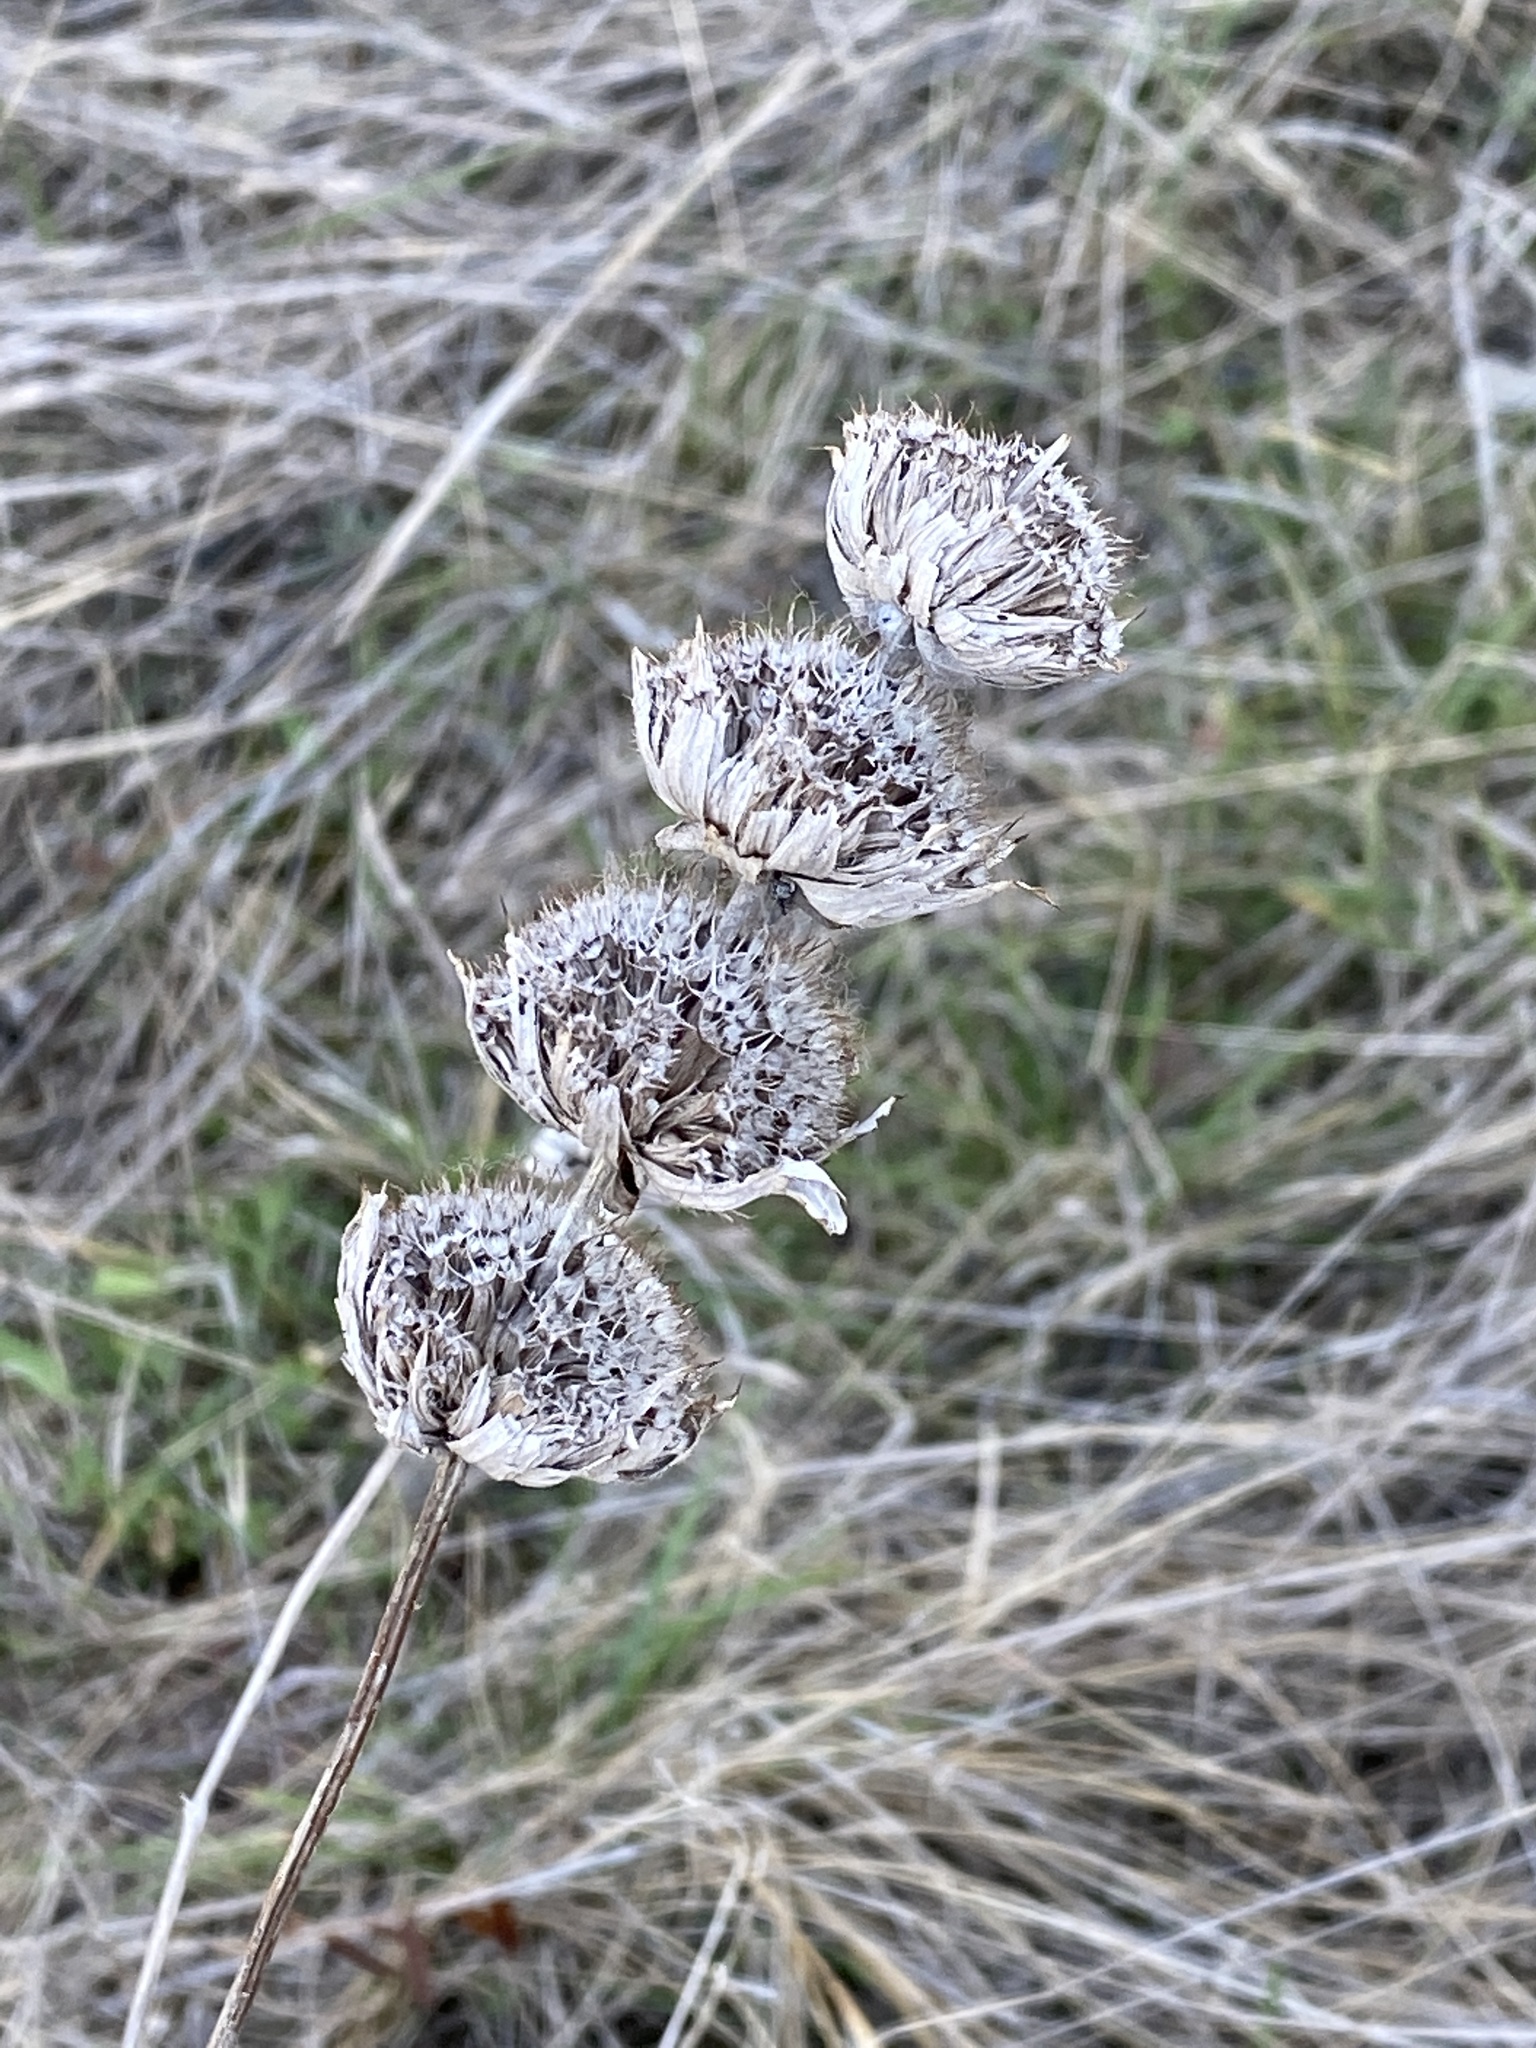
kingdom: Plantae
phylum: Tracheophyta
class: Magnoliopsida
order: Lamiales
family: Lamiaceae
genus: Monarda
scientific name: Monarda citriodora
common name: Lemon beebalm
